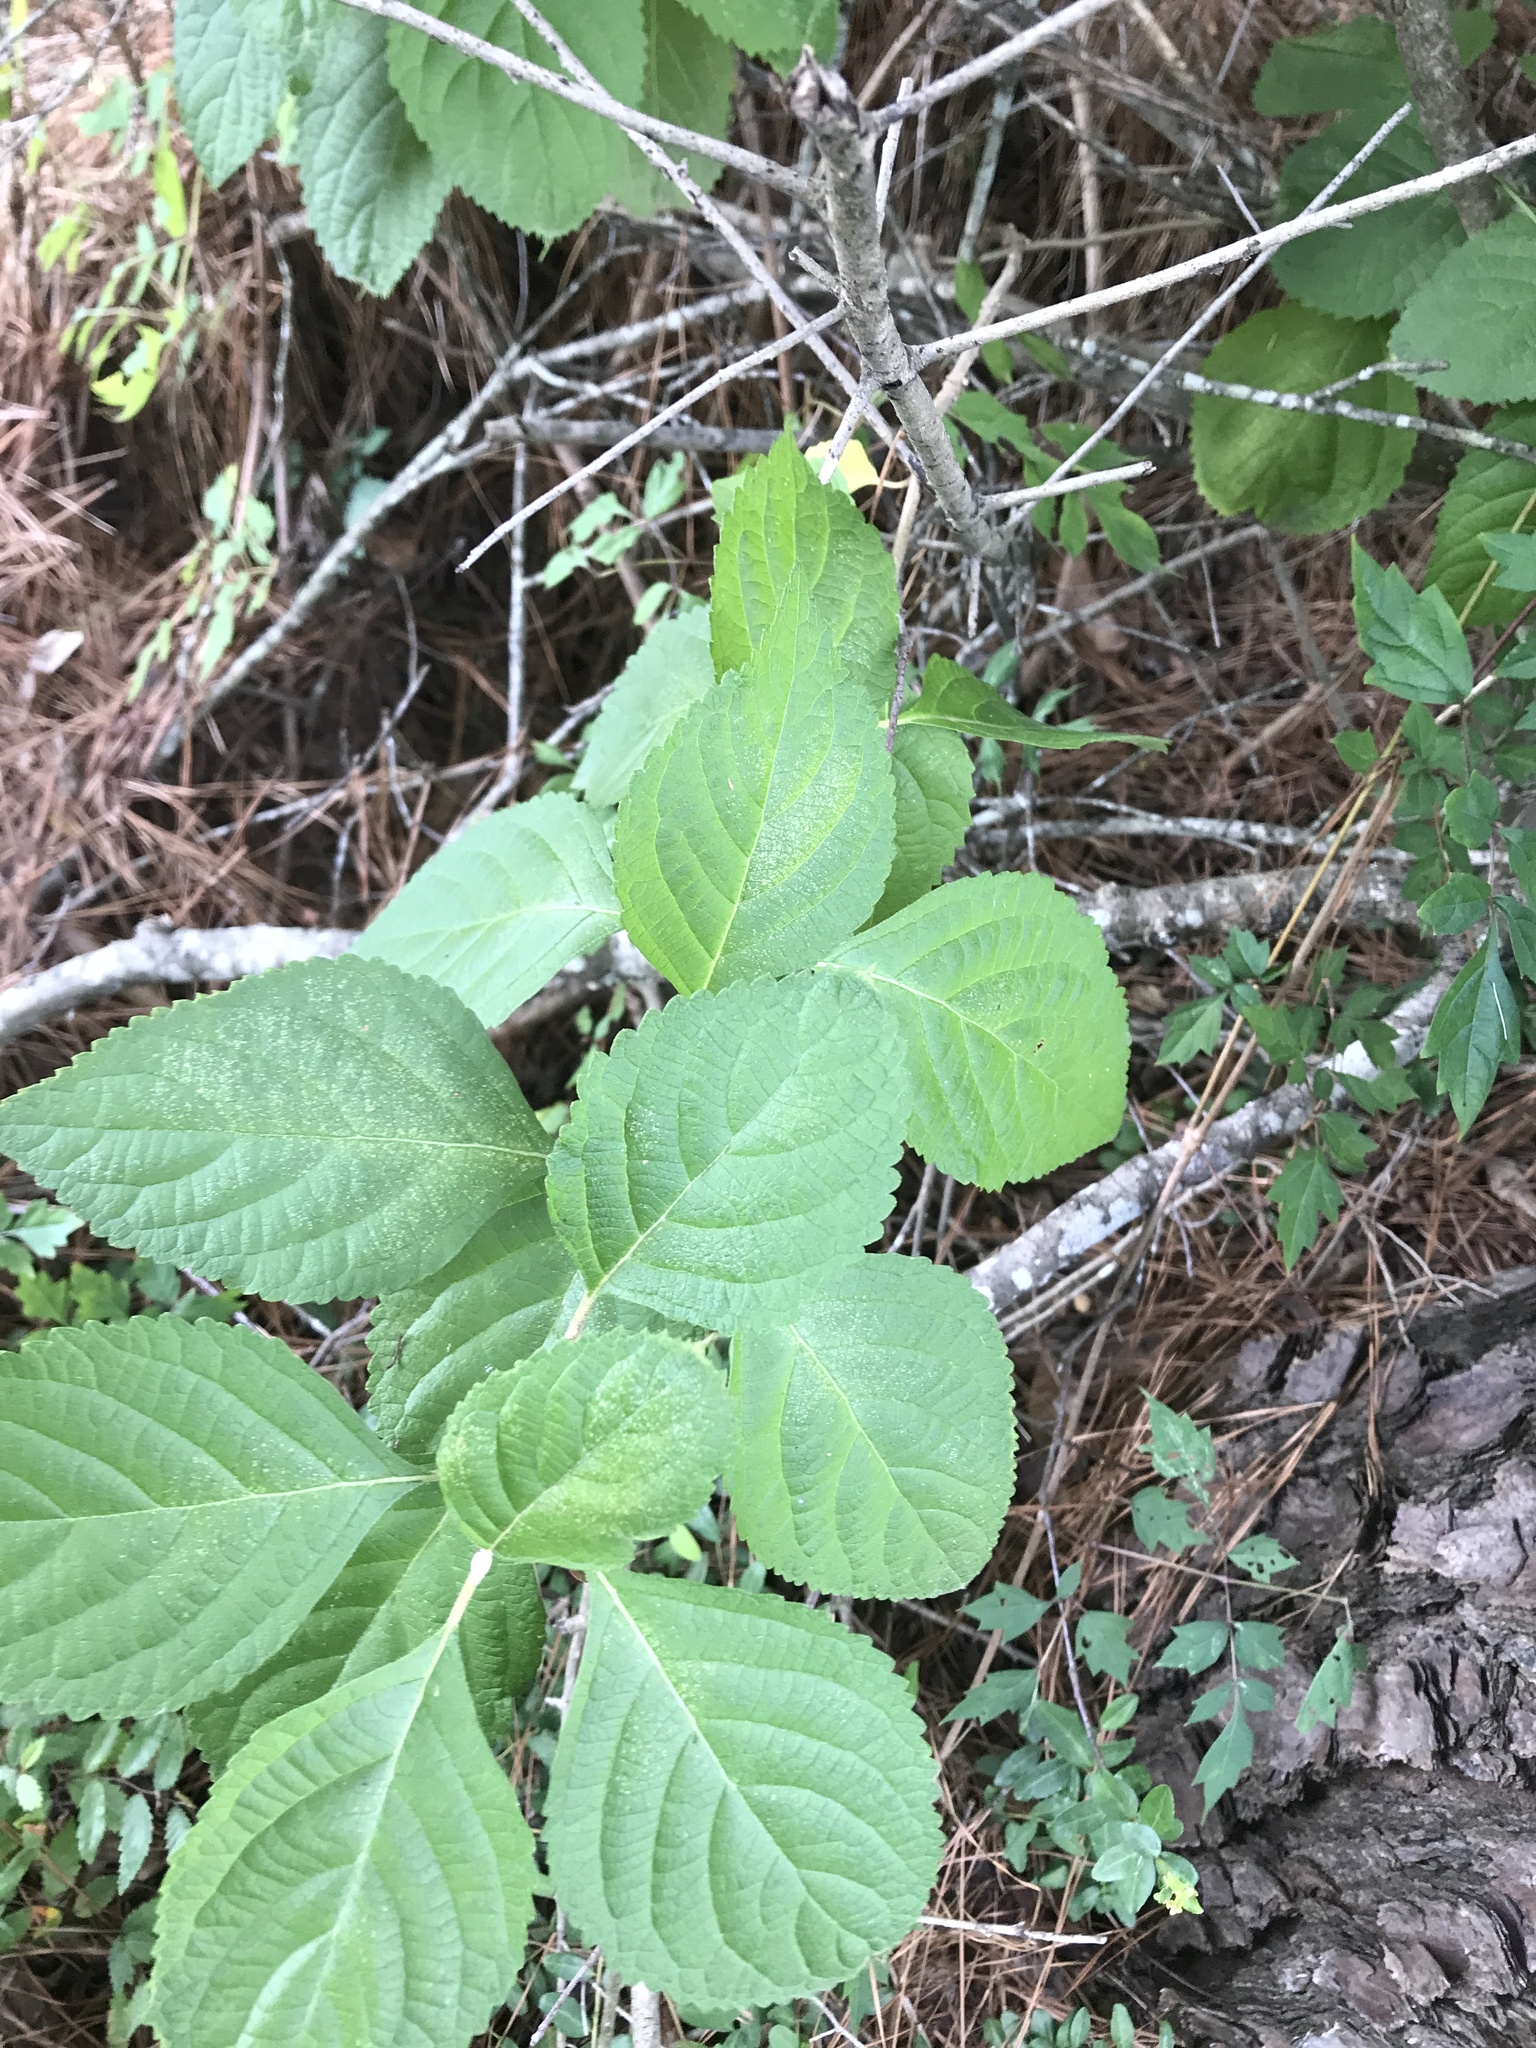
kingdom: Plantae
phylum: Tracheophyta
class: Magnoliopsida
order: Lamiales
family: Lamiaceae
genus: Callicarpa
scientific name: Callicarpa americana
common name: American beautyberry
